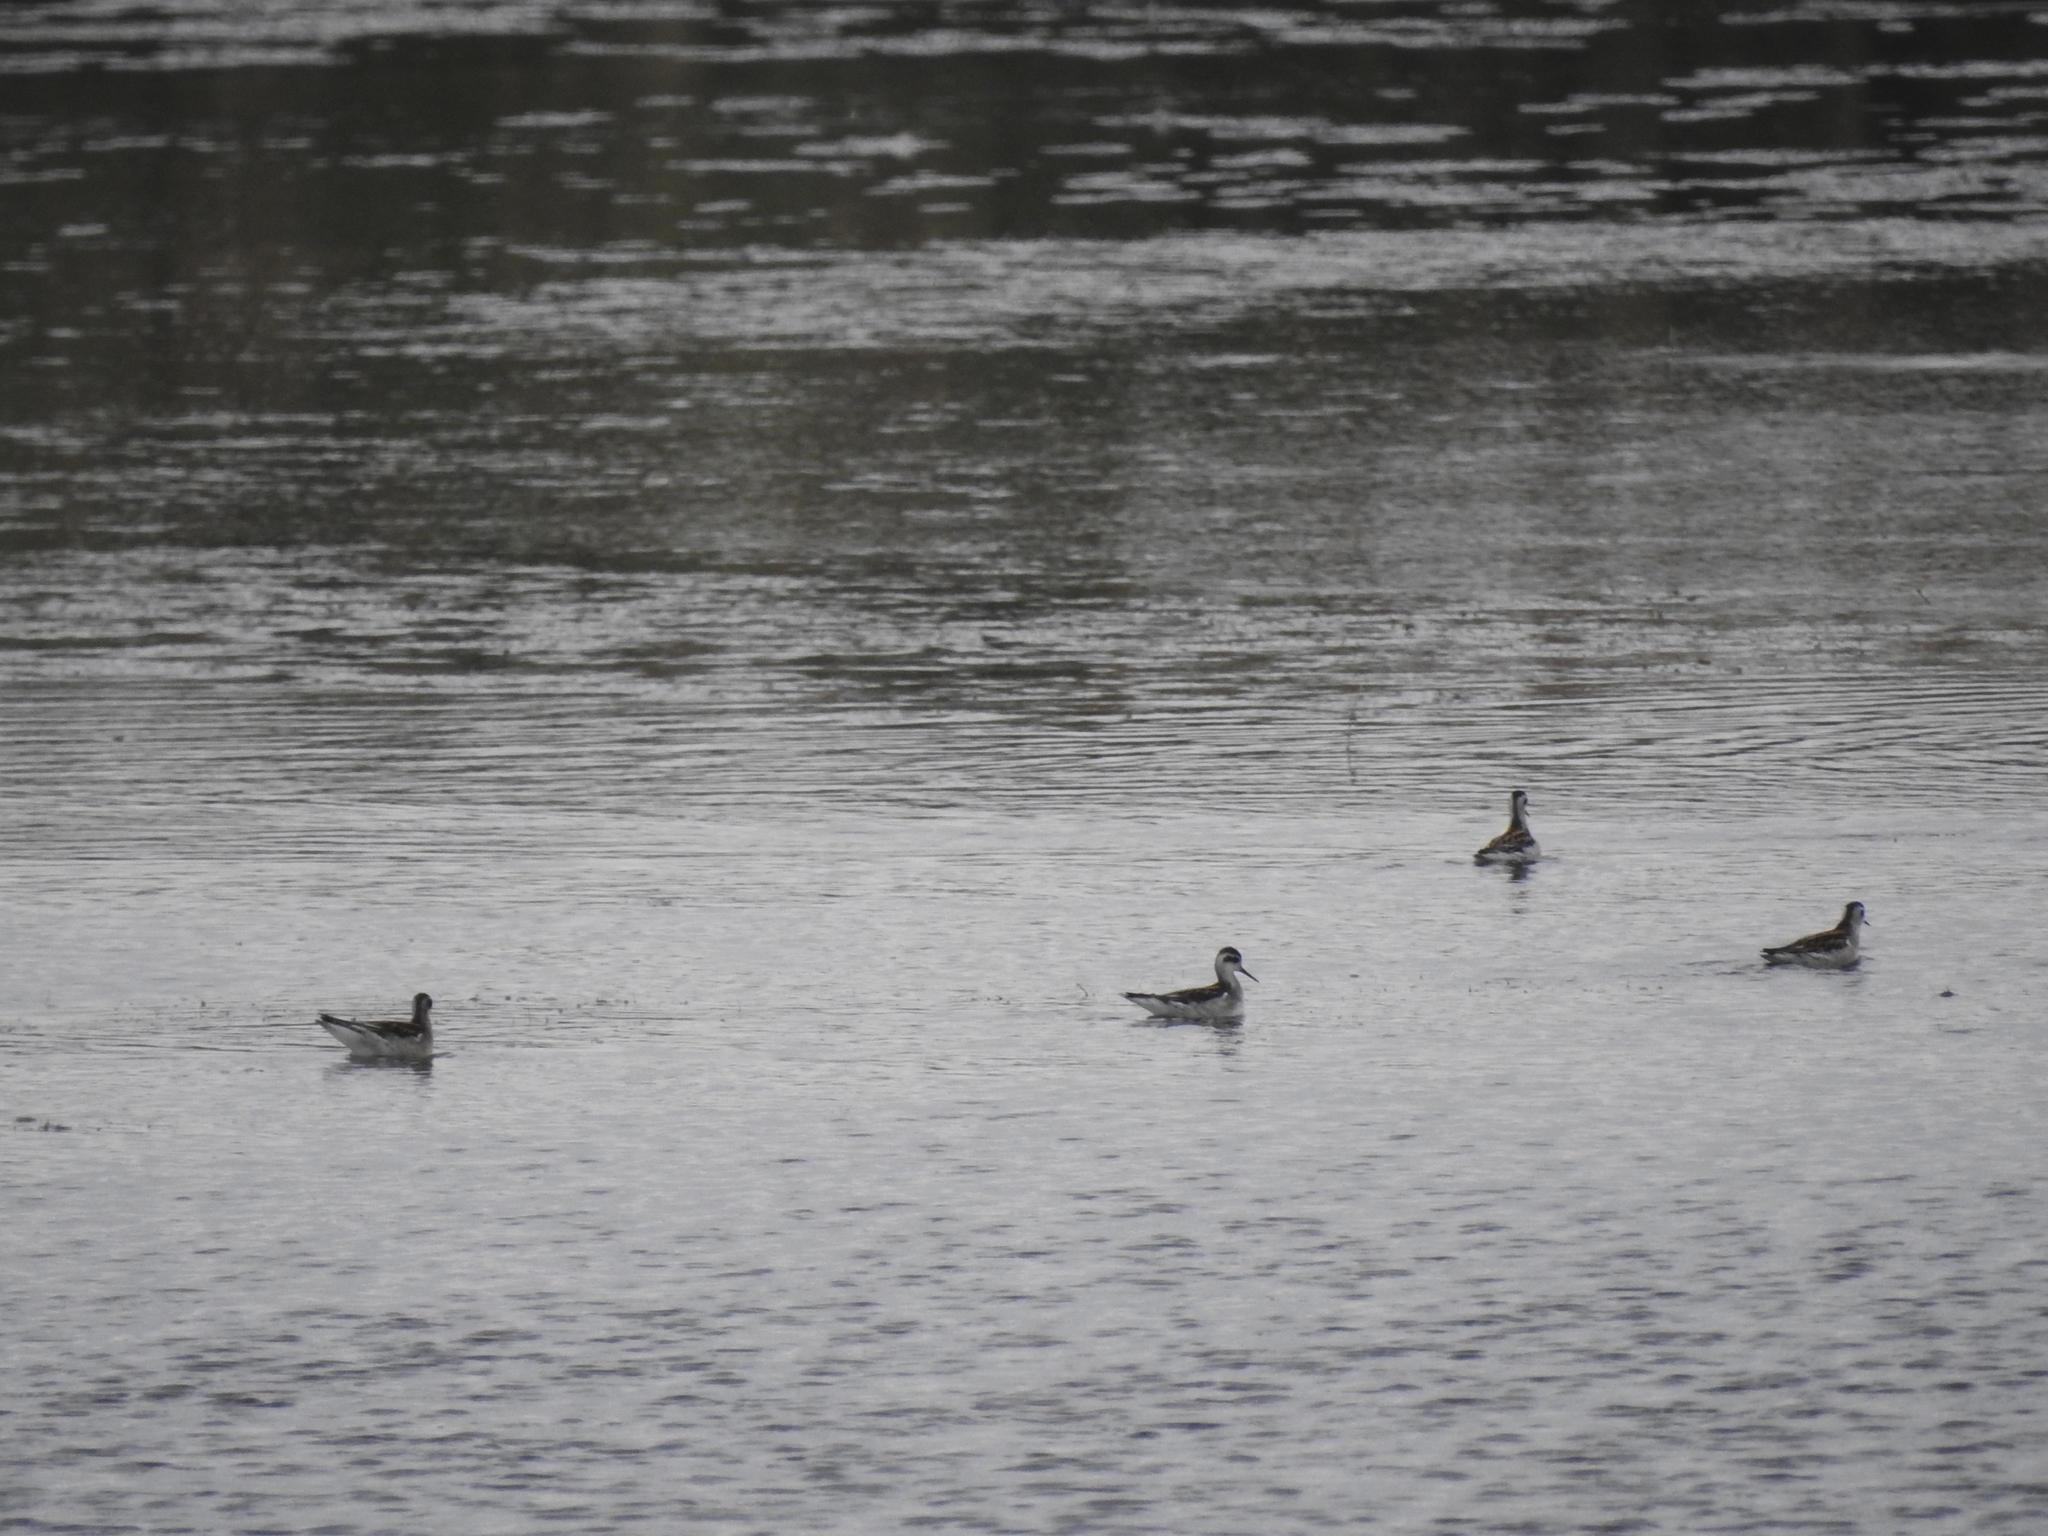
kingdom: Animalia
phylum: Chordata
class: Aves
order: Charadriiformes
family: Scolopacidae
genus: Phalaropus
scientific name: Phalaropus lobatus
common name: Red-necked phalarope
